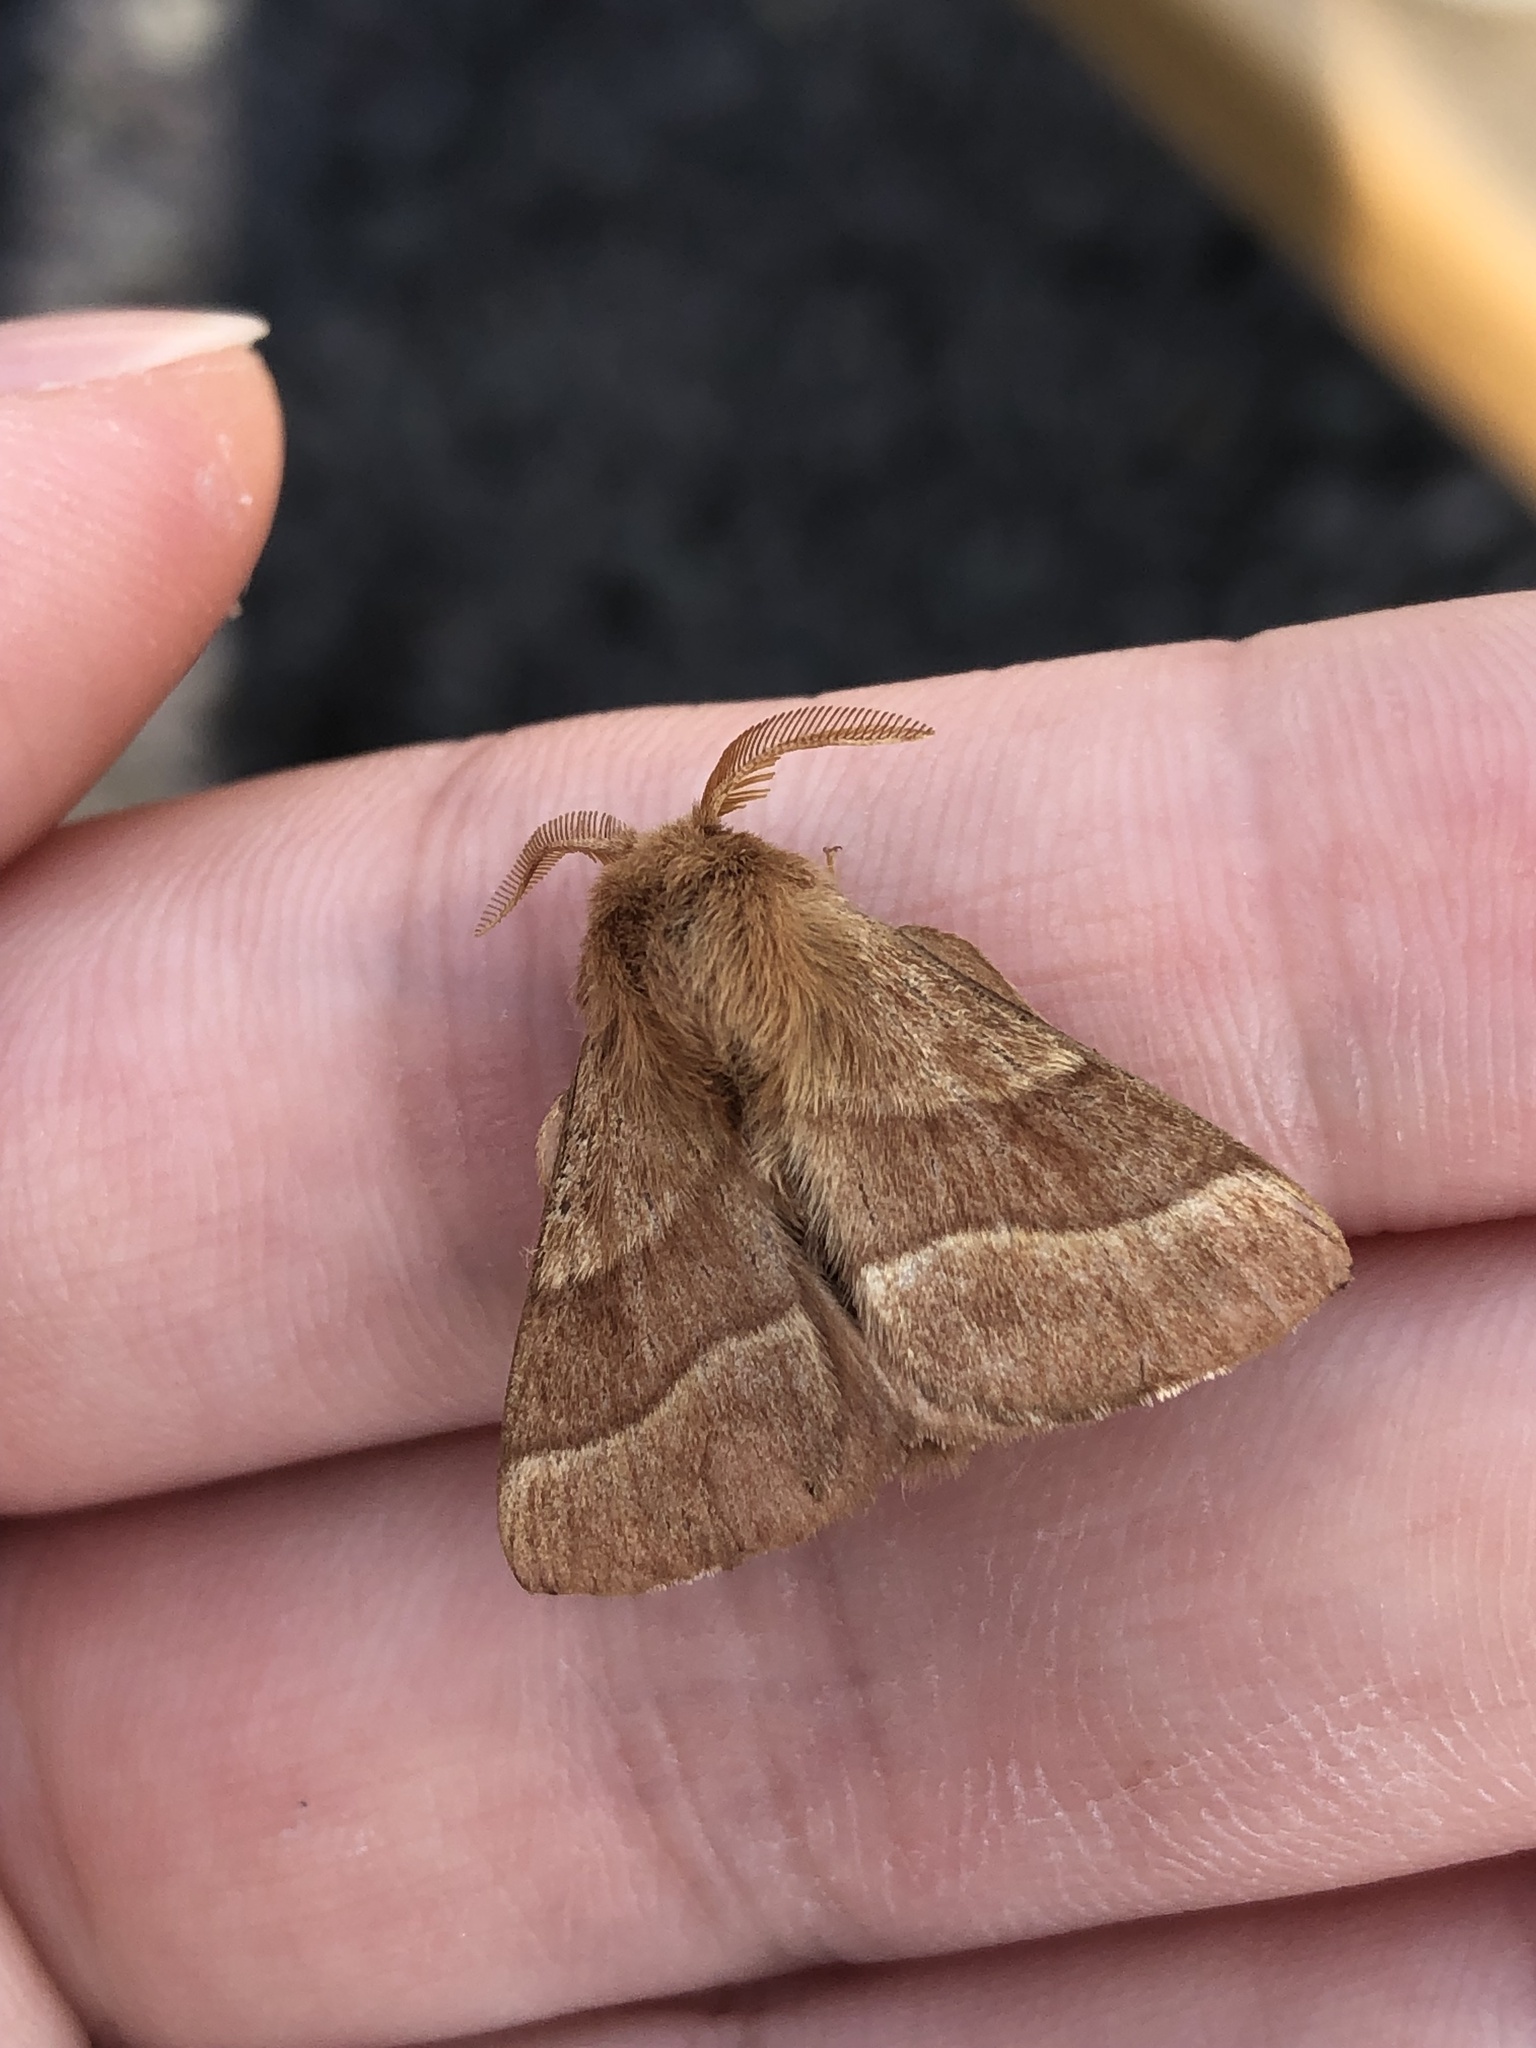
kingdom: Animalia
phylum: Arthropoda
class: Insecta
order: Lepidoptera
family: Lasiocampidae
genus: Malacosoma
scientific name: Malacosoma neustria
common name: The lackey
